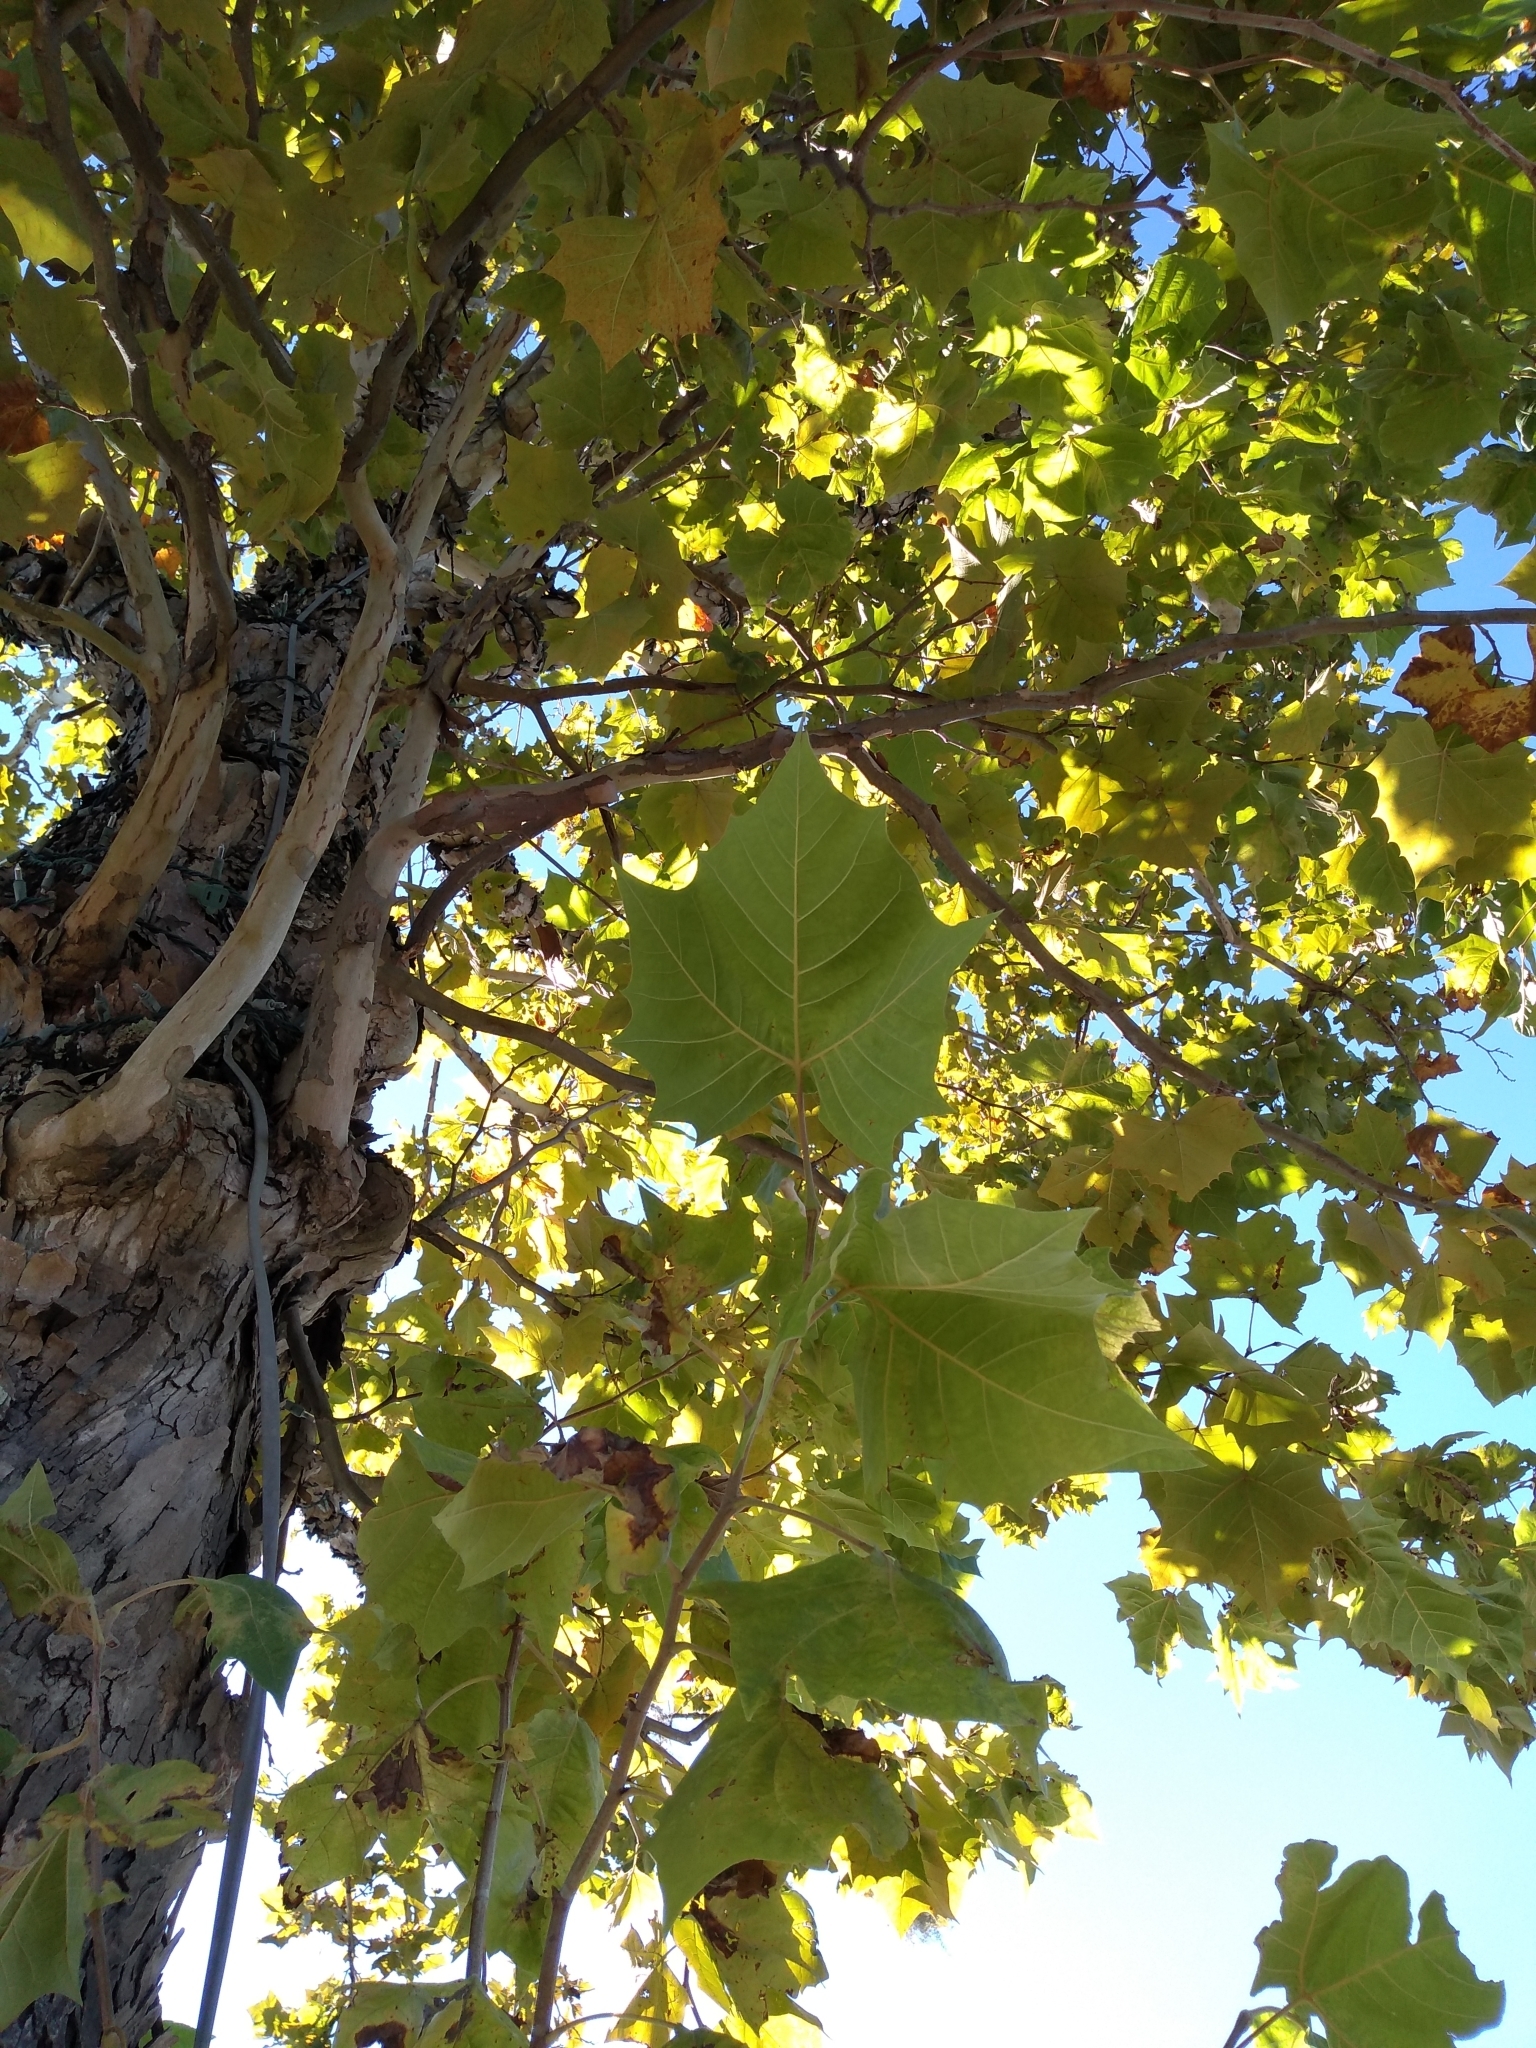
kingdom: Plantae
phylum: Tracheophyta
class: Magnoliopsida
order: Proteales
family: Platanaceae
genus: Platanus
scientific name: Platanus occidentalis
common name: American sycamore
